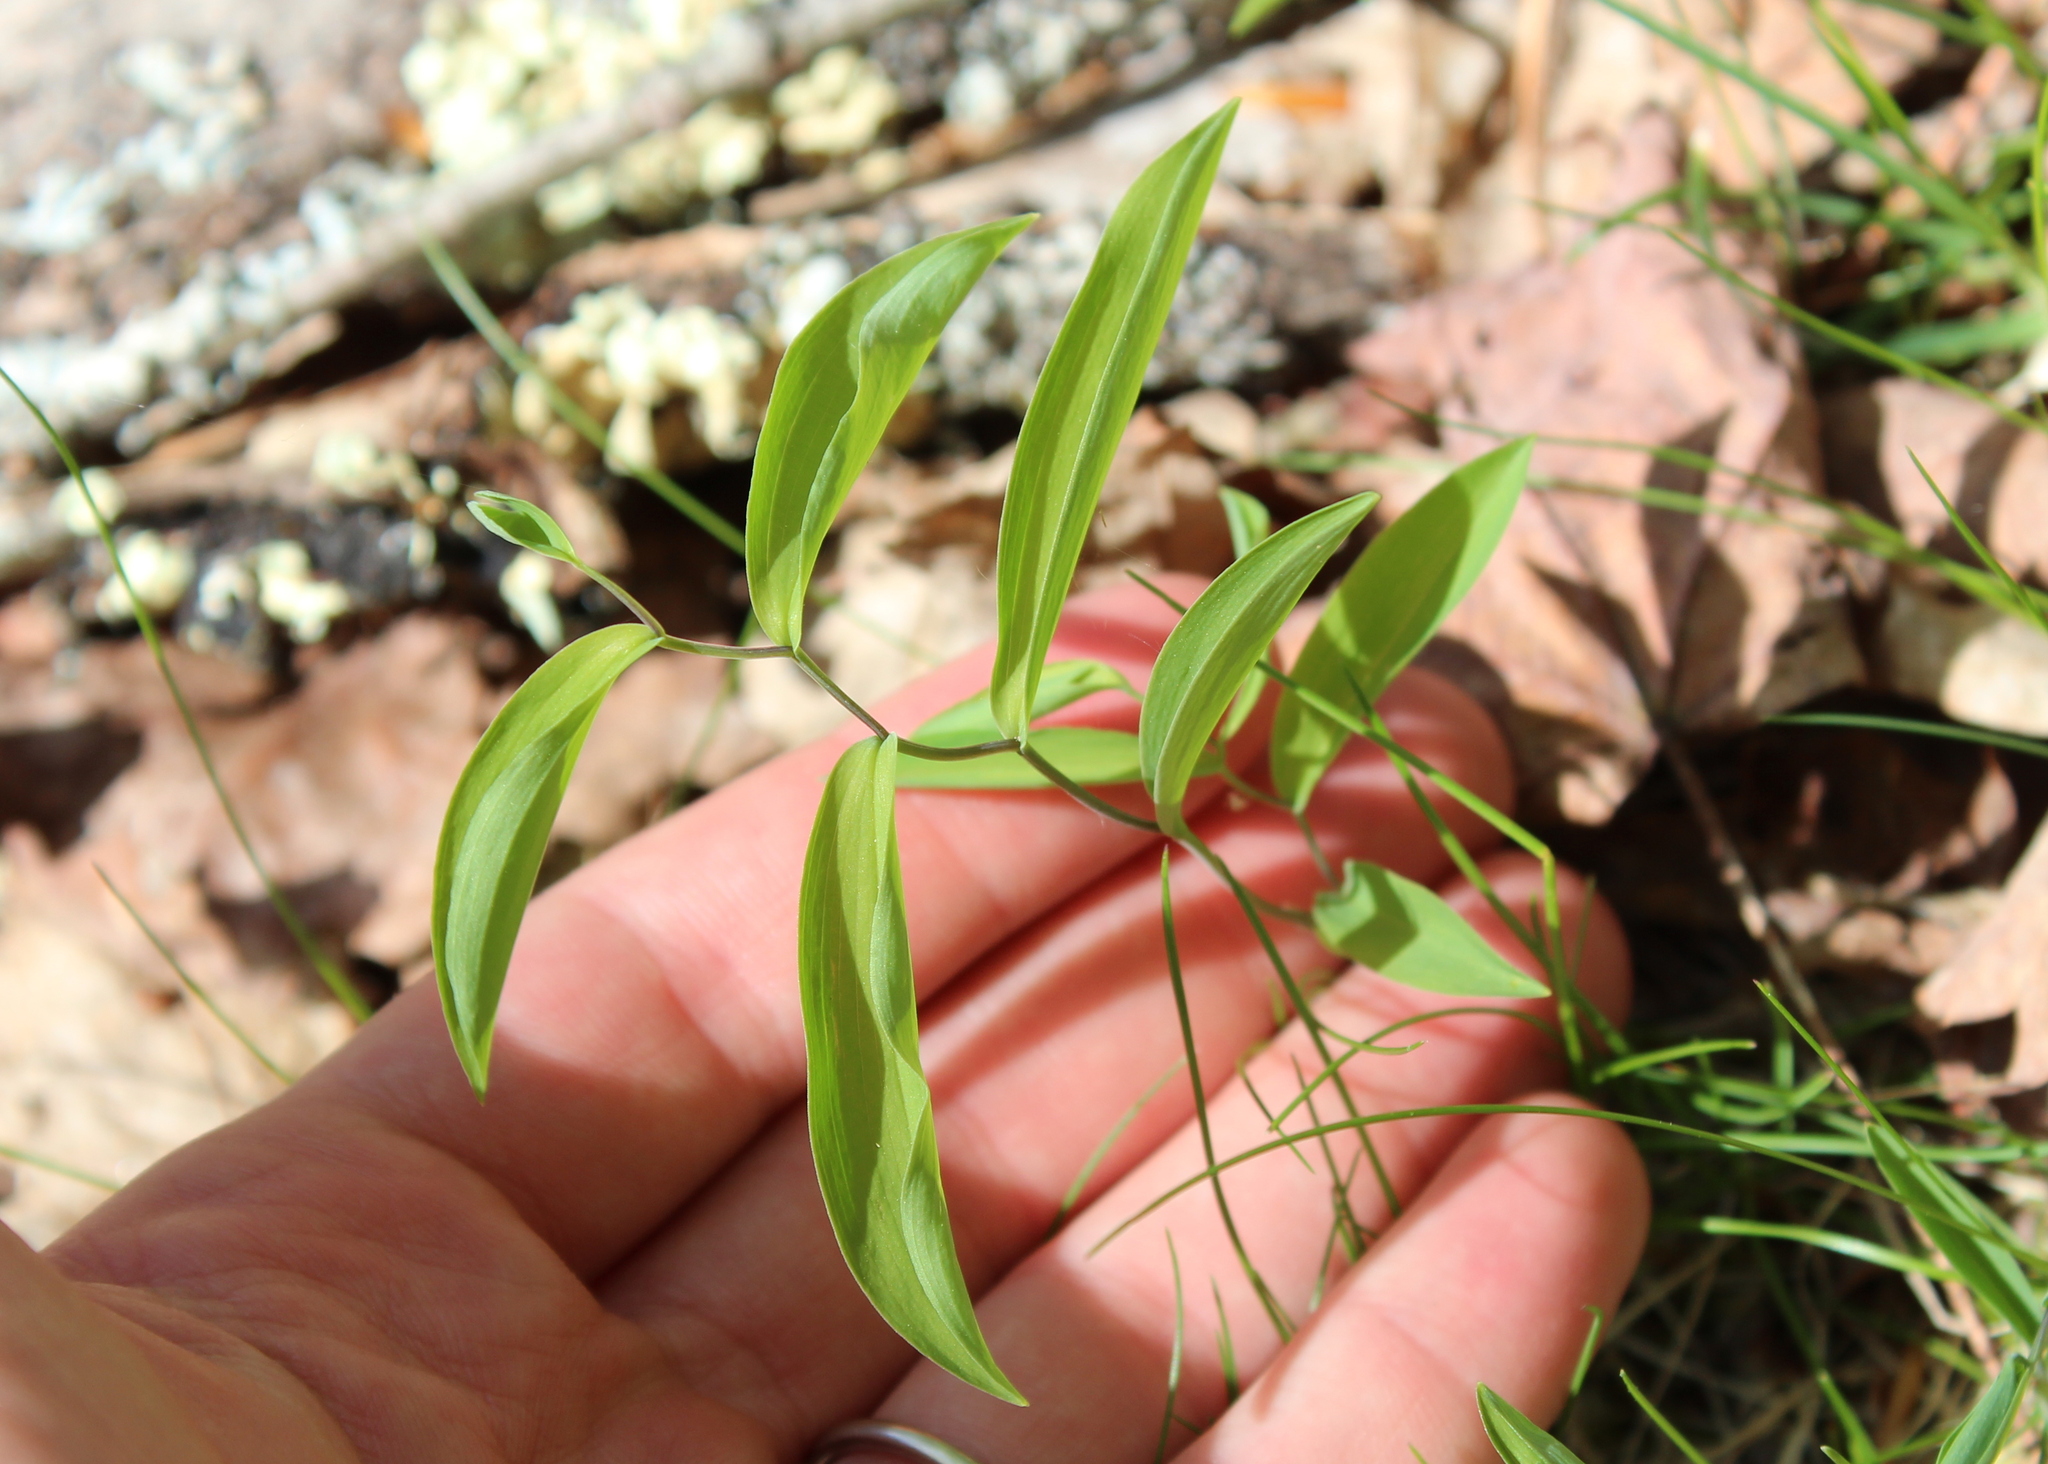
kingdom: Plantae
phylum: Tracheophyta
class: Liliopsida
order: Liliales
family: Colchicaceae
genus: Uvularia
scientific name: Uvularia sessilifolia
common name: Straw-lily
